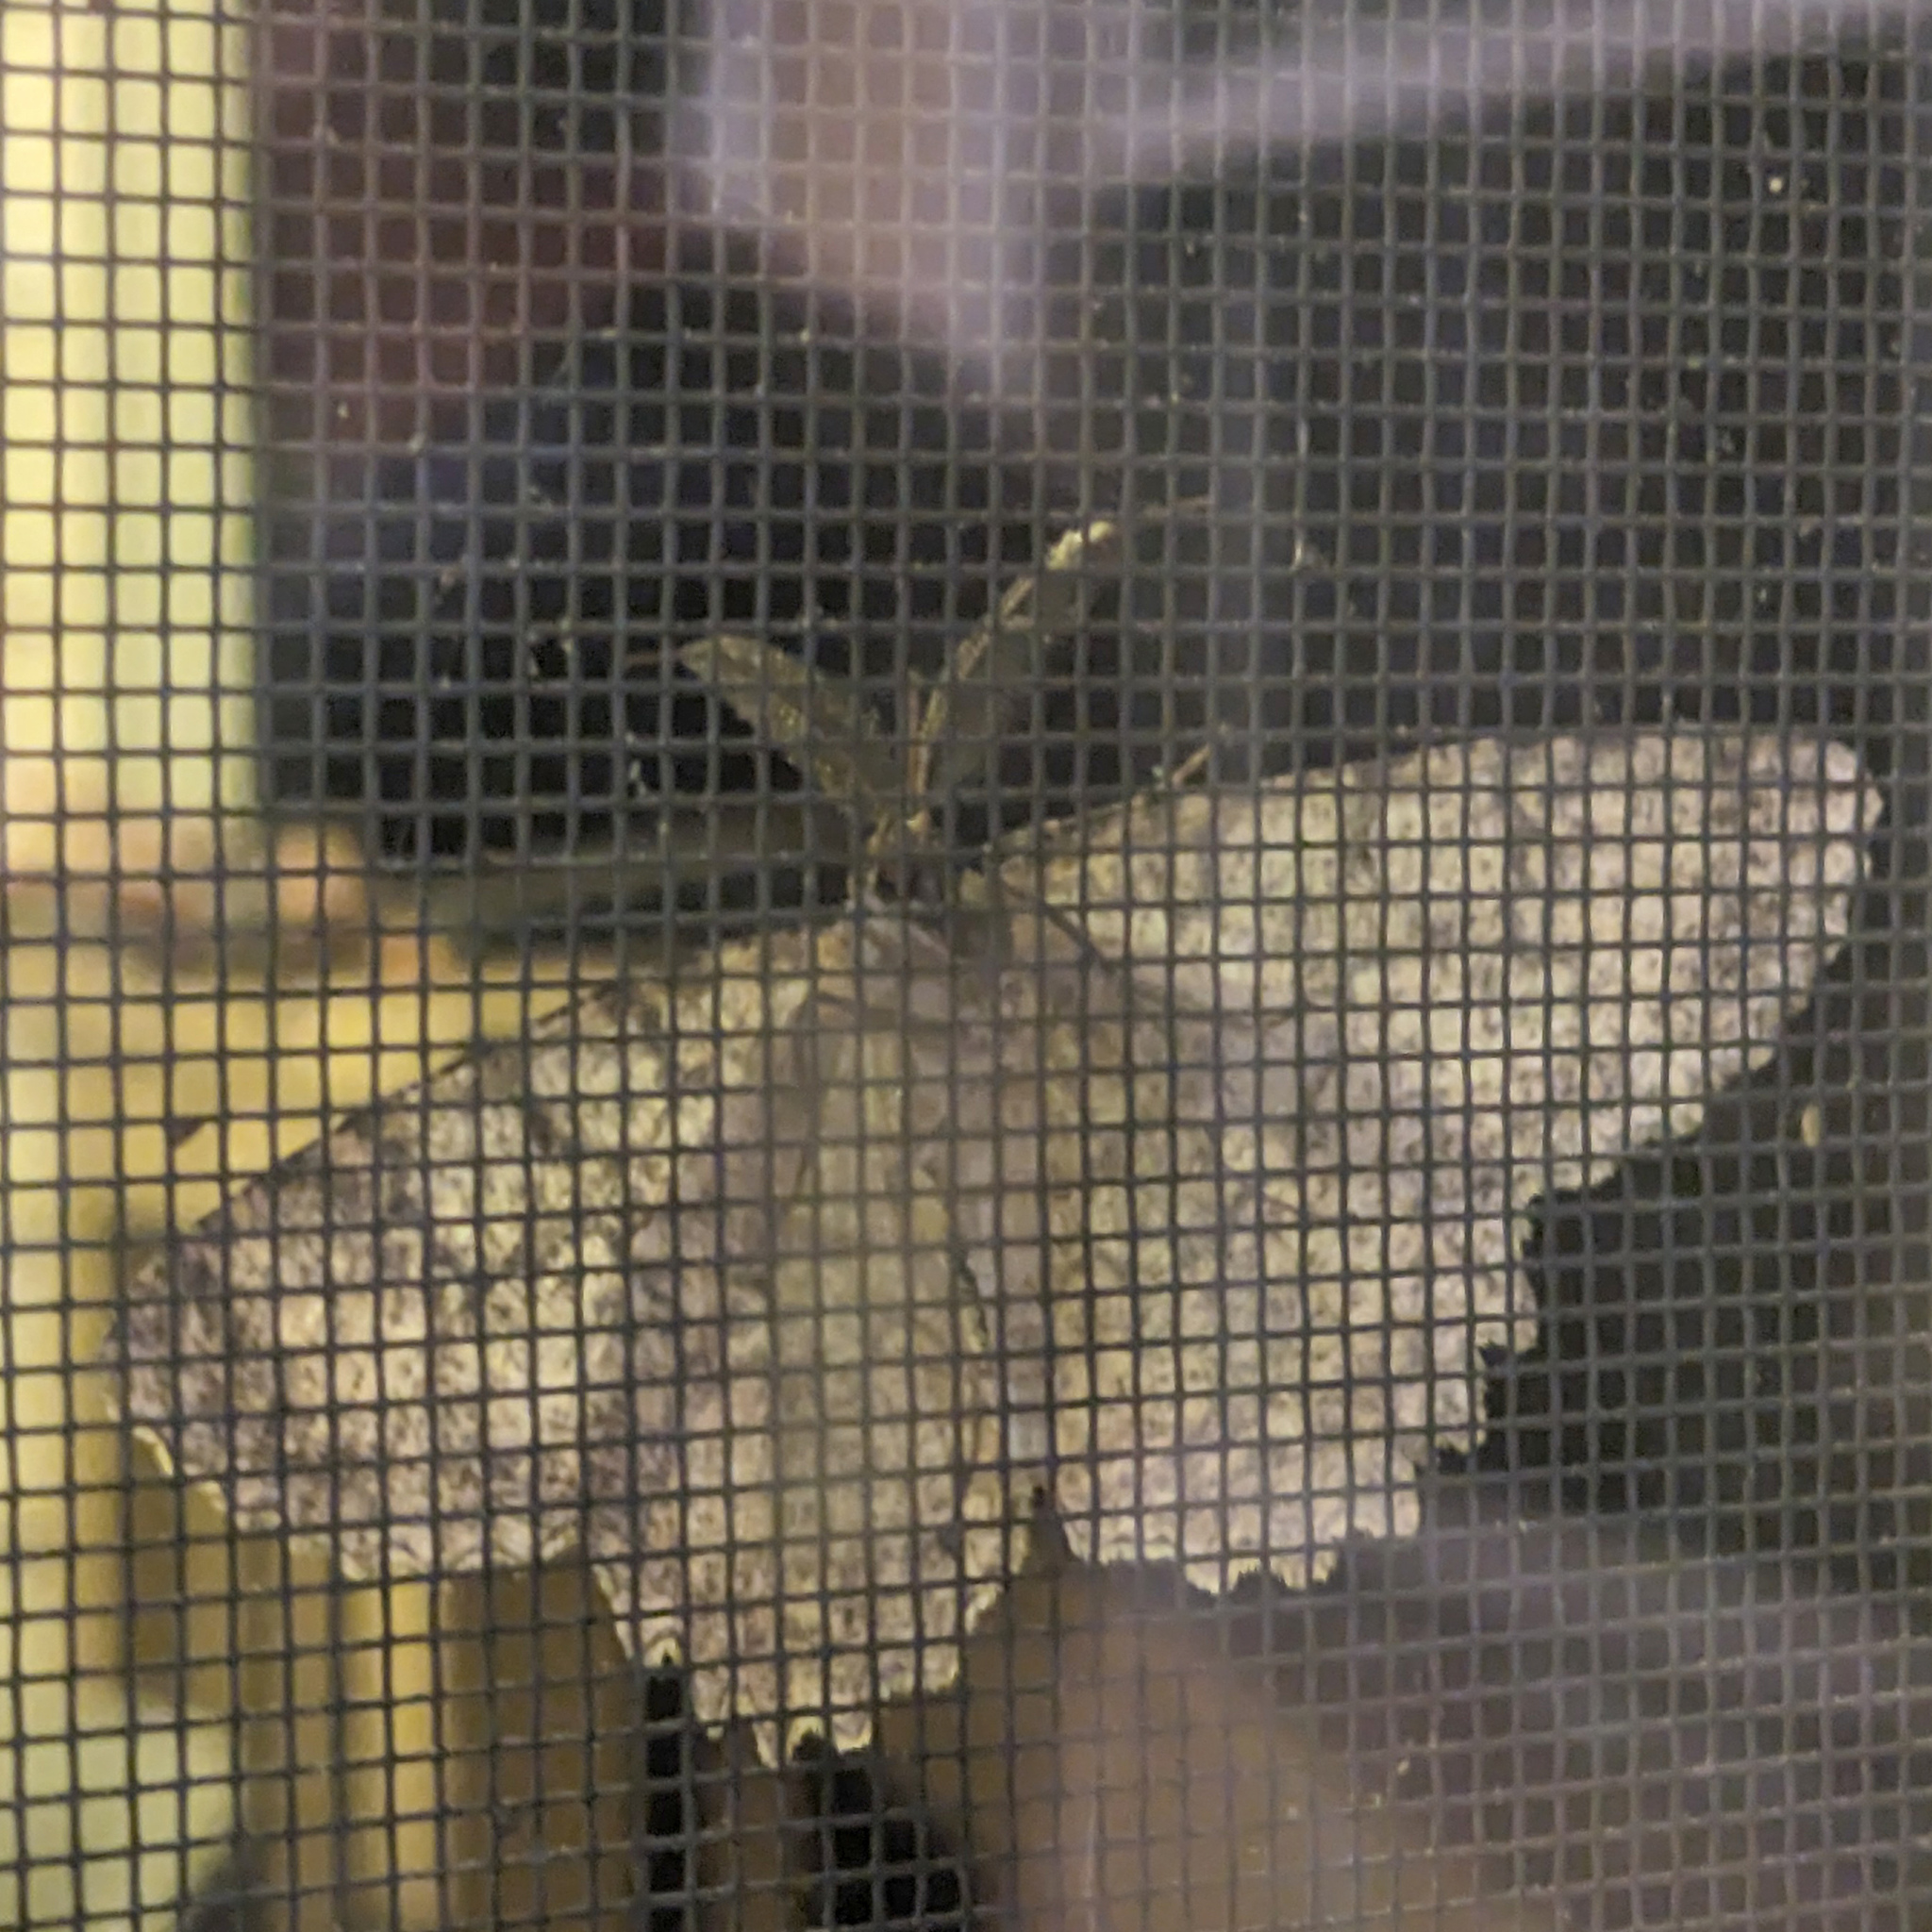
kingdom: Animalia
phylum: Arthropoda
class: Insecta
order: Lepidoptera
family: Geometridae
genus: Epimecis
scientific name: Epimecis hortaria
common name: Tulip-tree beauty
